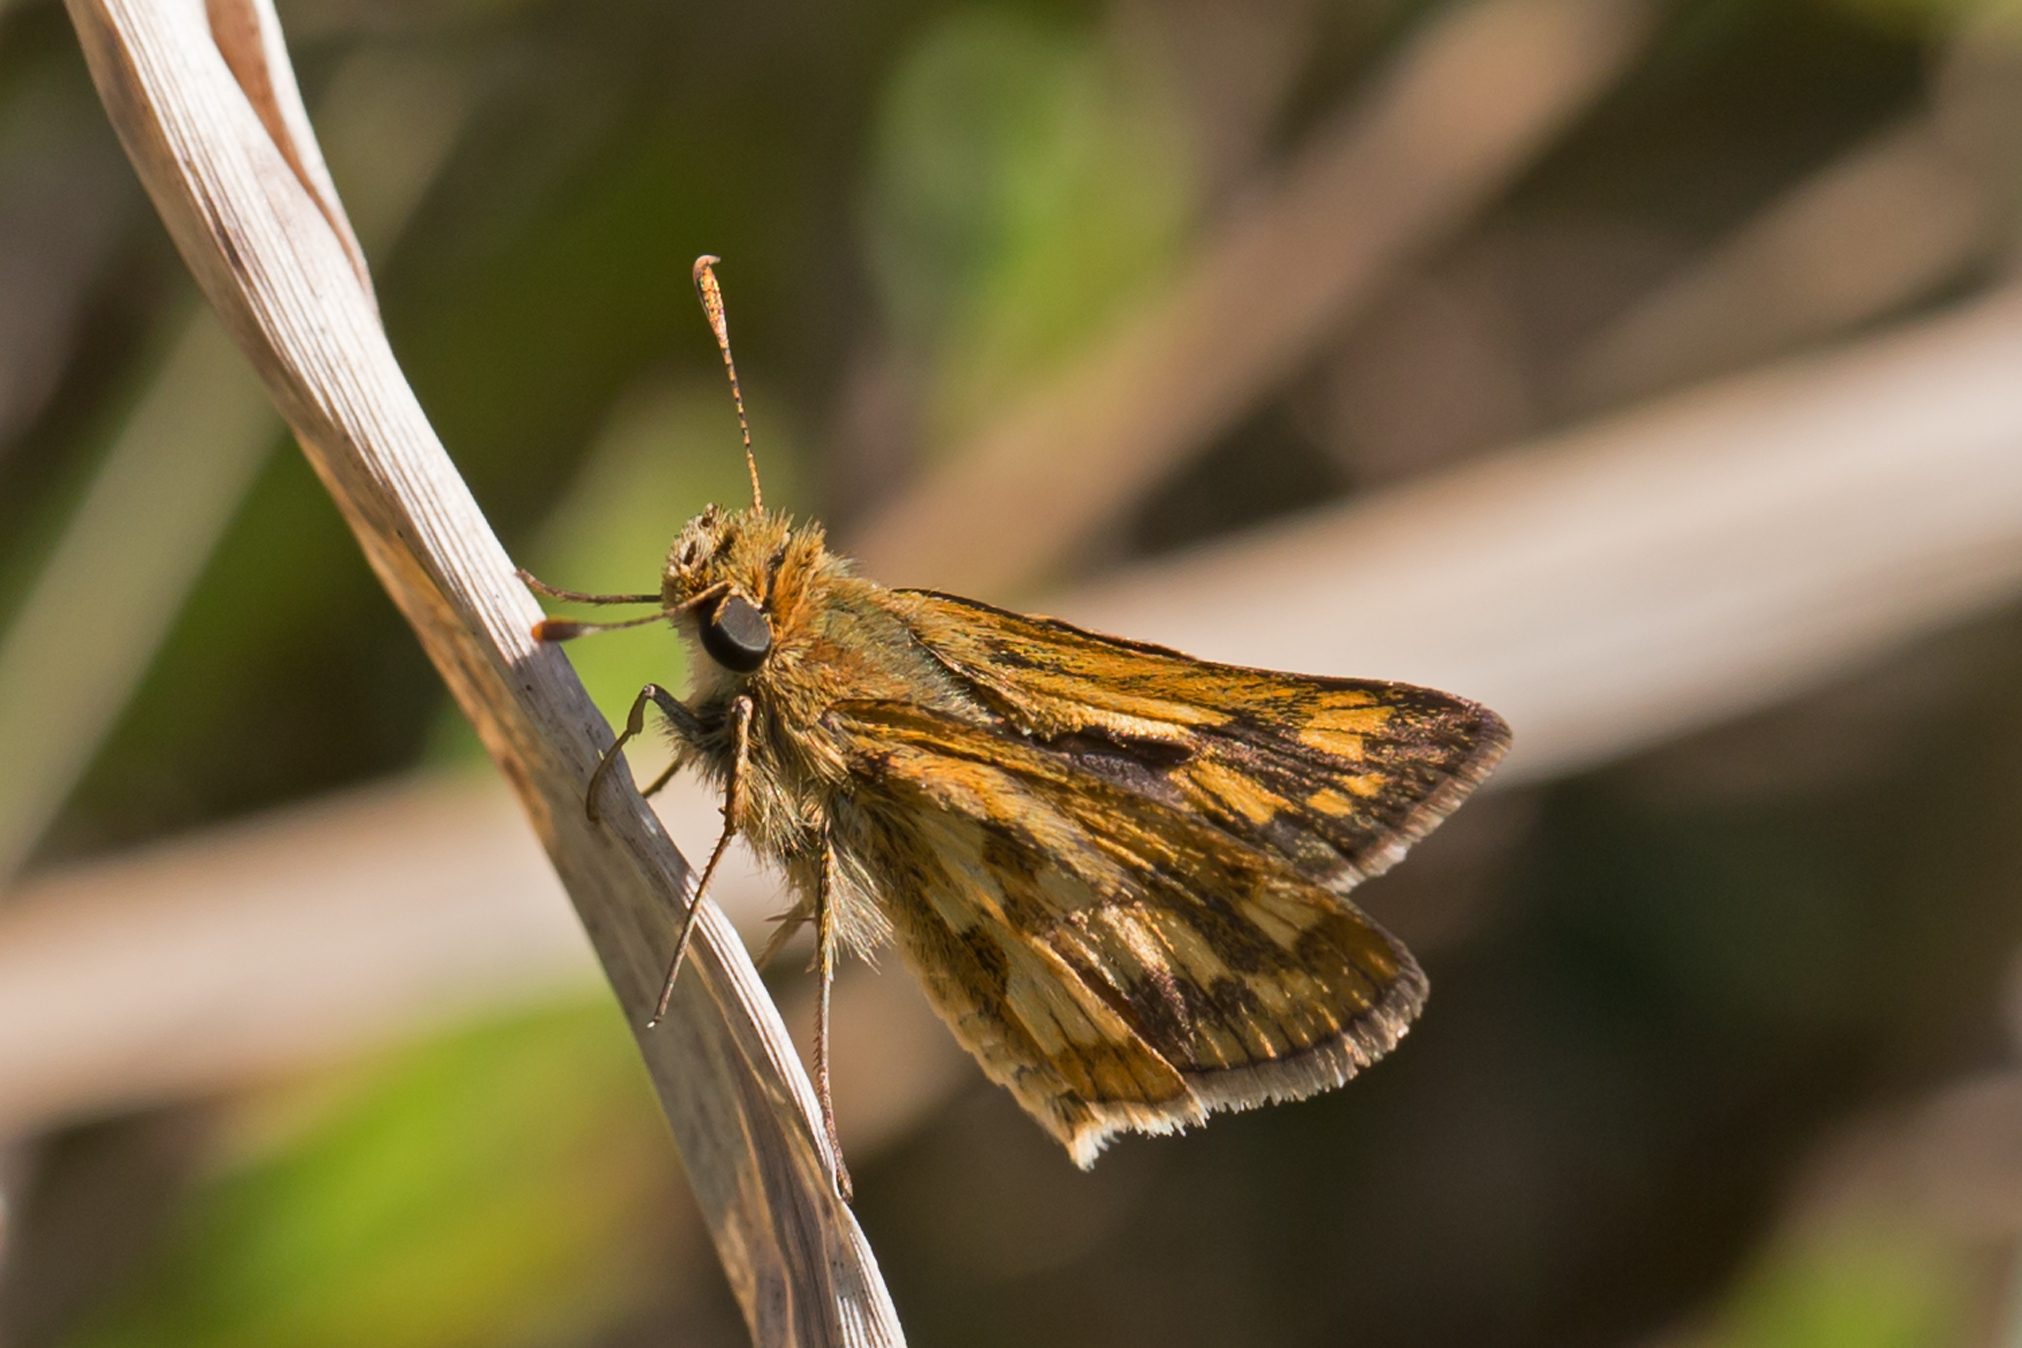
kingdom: Animalia
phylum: Arthropoda
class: Insecta
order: Lepidoptera
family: Hesperiidae
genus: Polites
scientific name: Polites coras
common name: Peck's skipper
